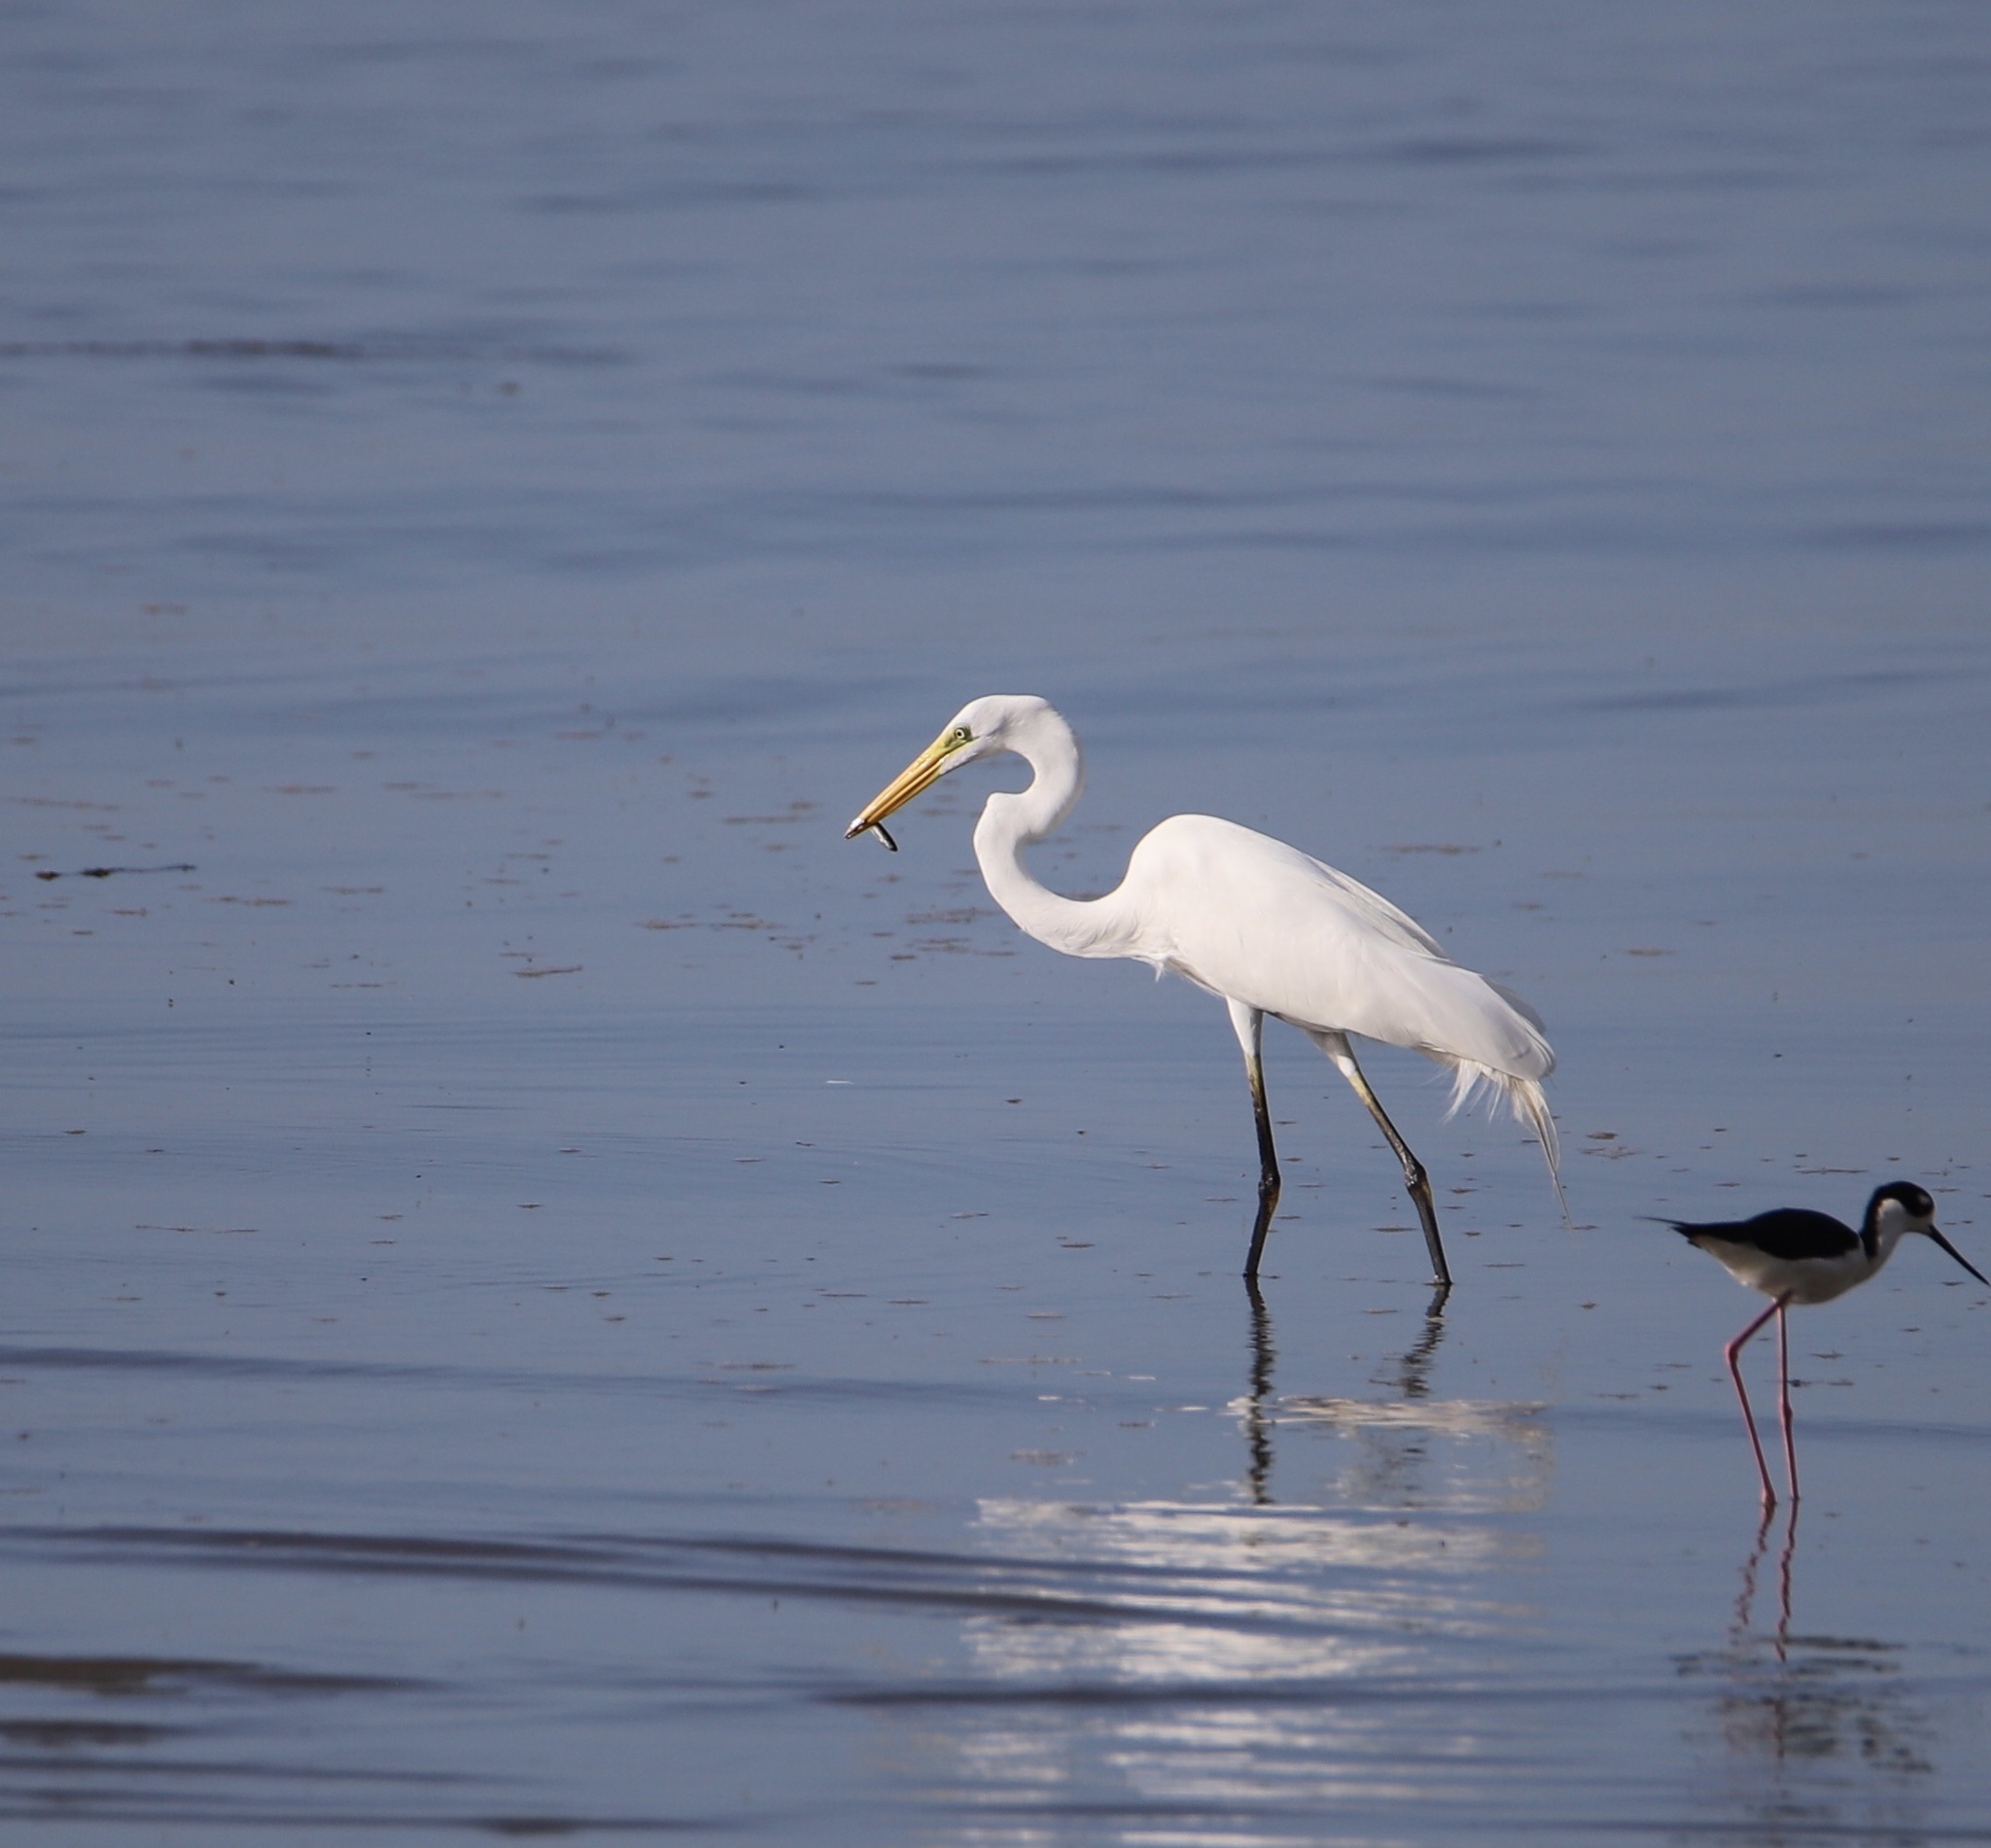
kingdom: Animalia
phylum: Chordata
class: Aves
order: Pelecaniformes
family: Ardeidae
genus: Ardea
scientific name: Ardea alba
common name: Great egret
